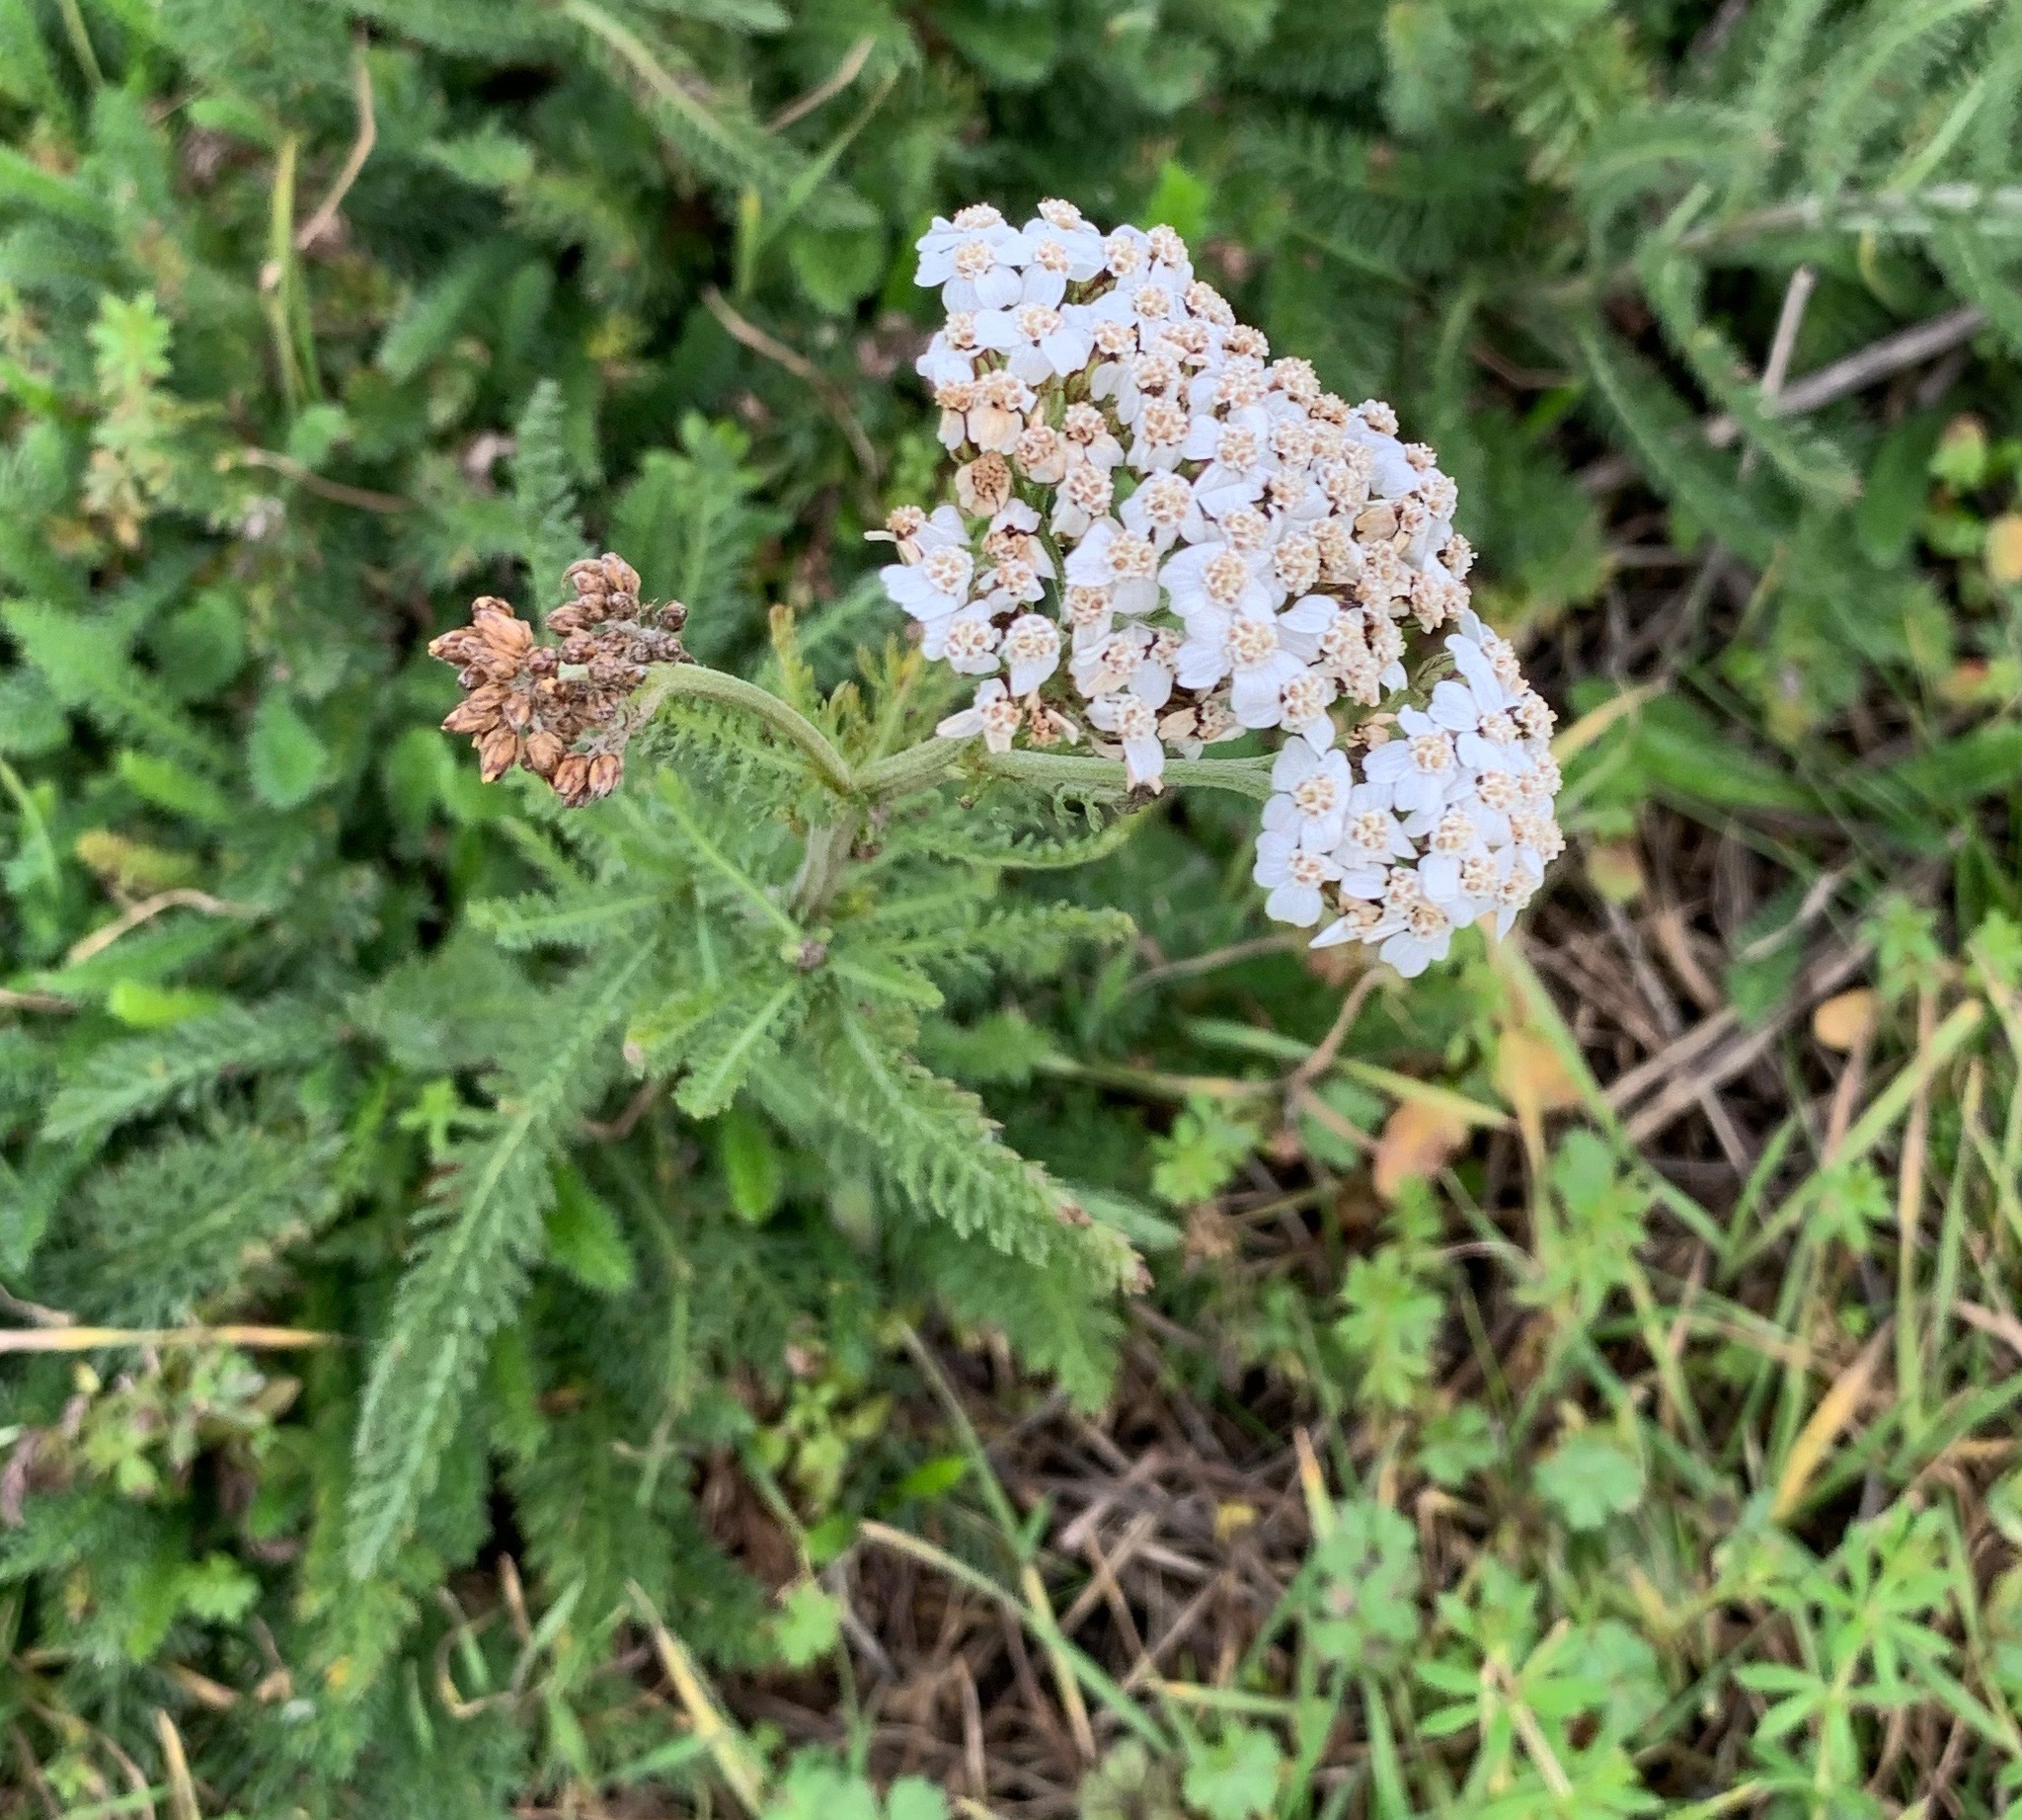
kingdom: Plantae
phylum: Tracheophyta
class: Magnoliopsida
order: Asterales
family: Asteraceae
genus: Achillea
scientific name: Achillea millefolium
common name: Yarrow
